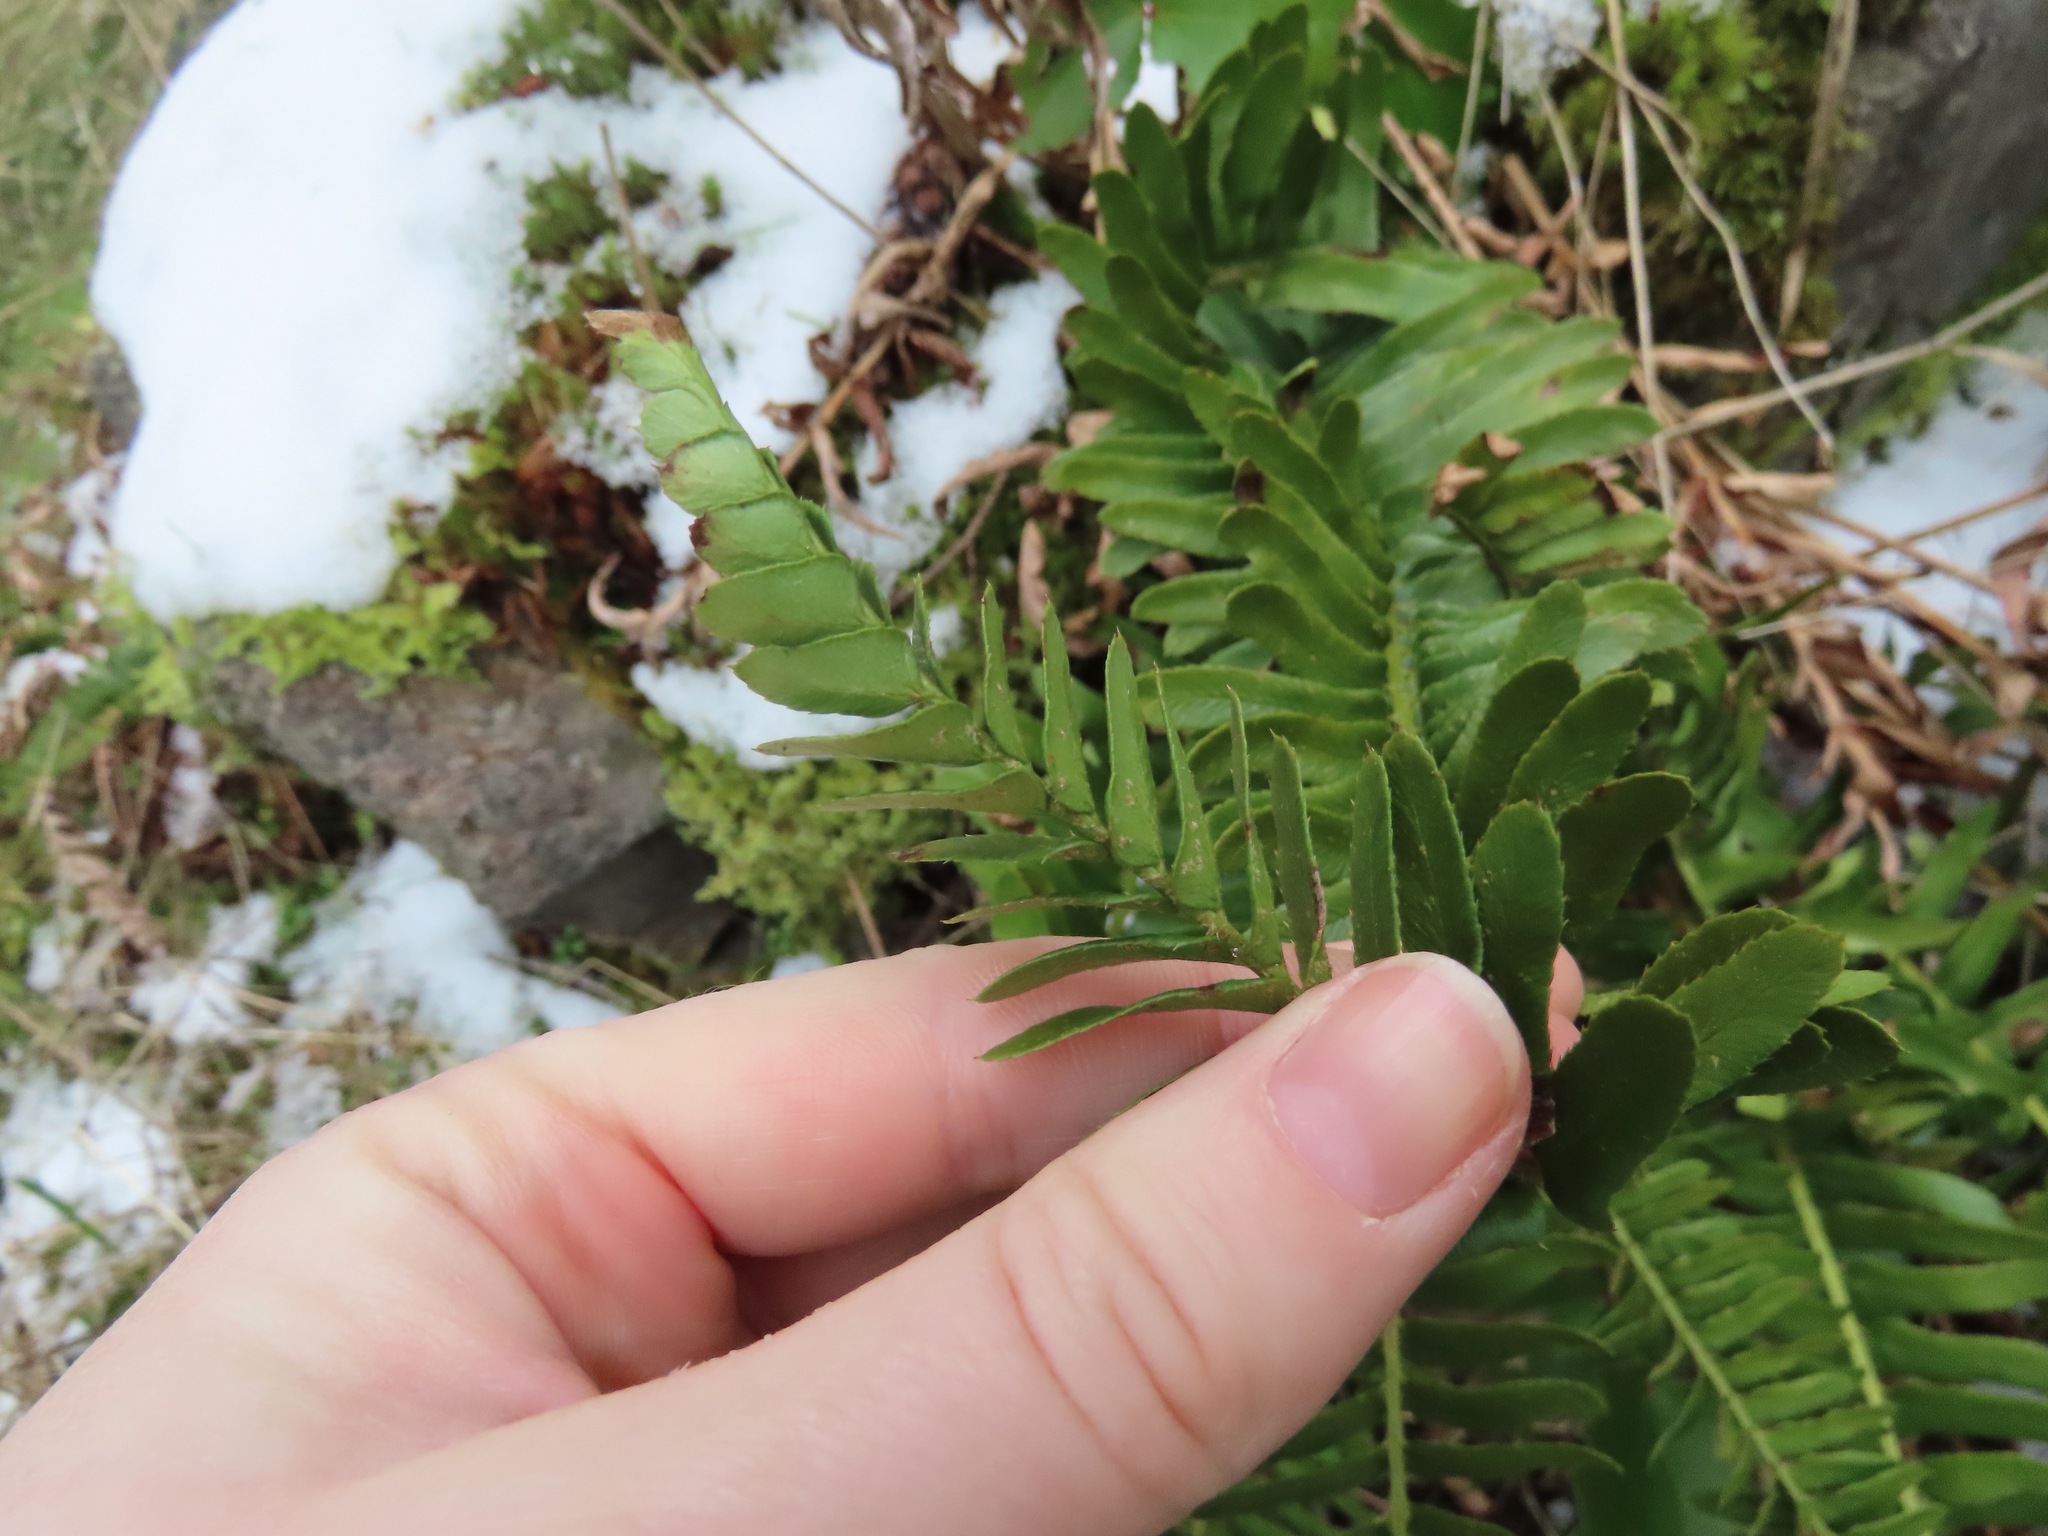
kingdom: Plantae
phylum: Tracheophyta
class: Polypodiopsida
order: Polypodiales
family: Dryopteridaceae
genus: Polystichum
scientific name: Polystichum imbricans
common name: Dwarf western sword fern
